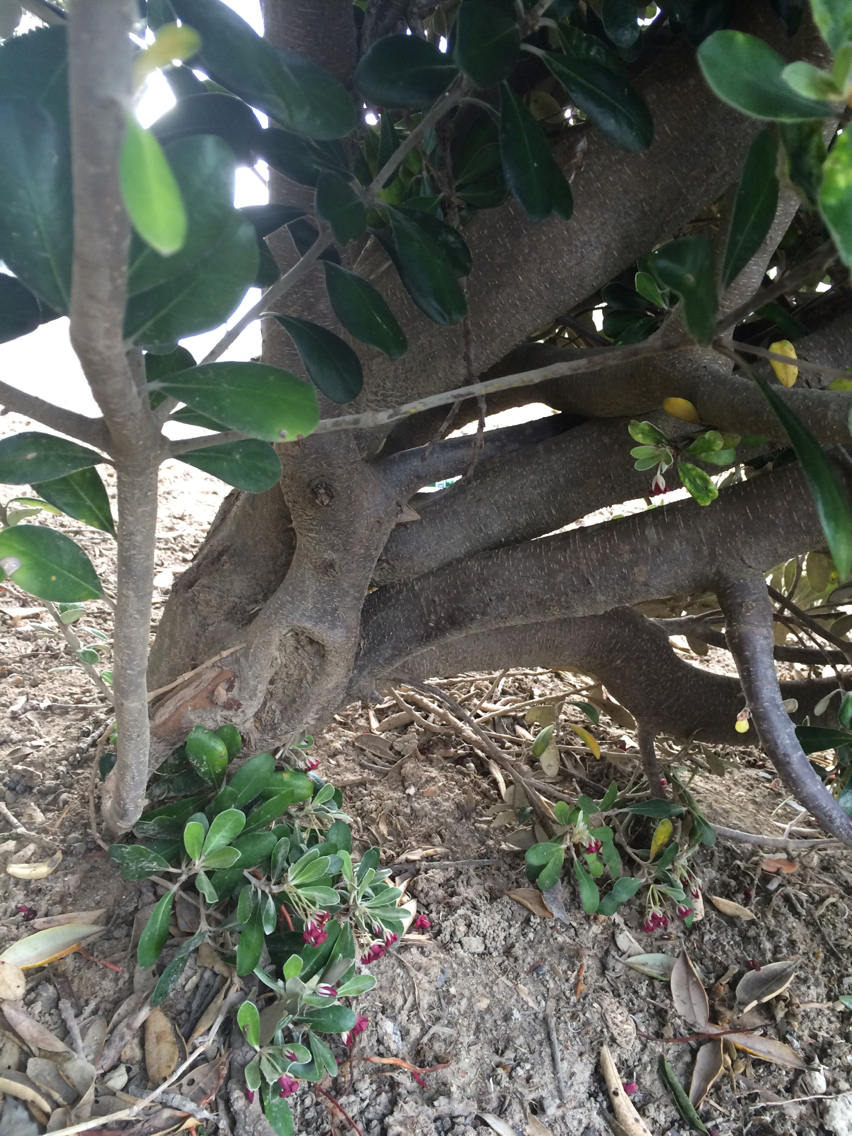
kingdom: Plantae
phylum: Tracheophyta
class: Magnoliopsida
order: Apiales
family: Pittosporaceae
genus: Pittosporum
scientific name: Pittosporum crassifolium
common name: Karo
